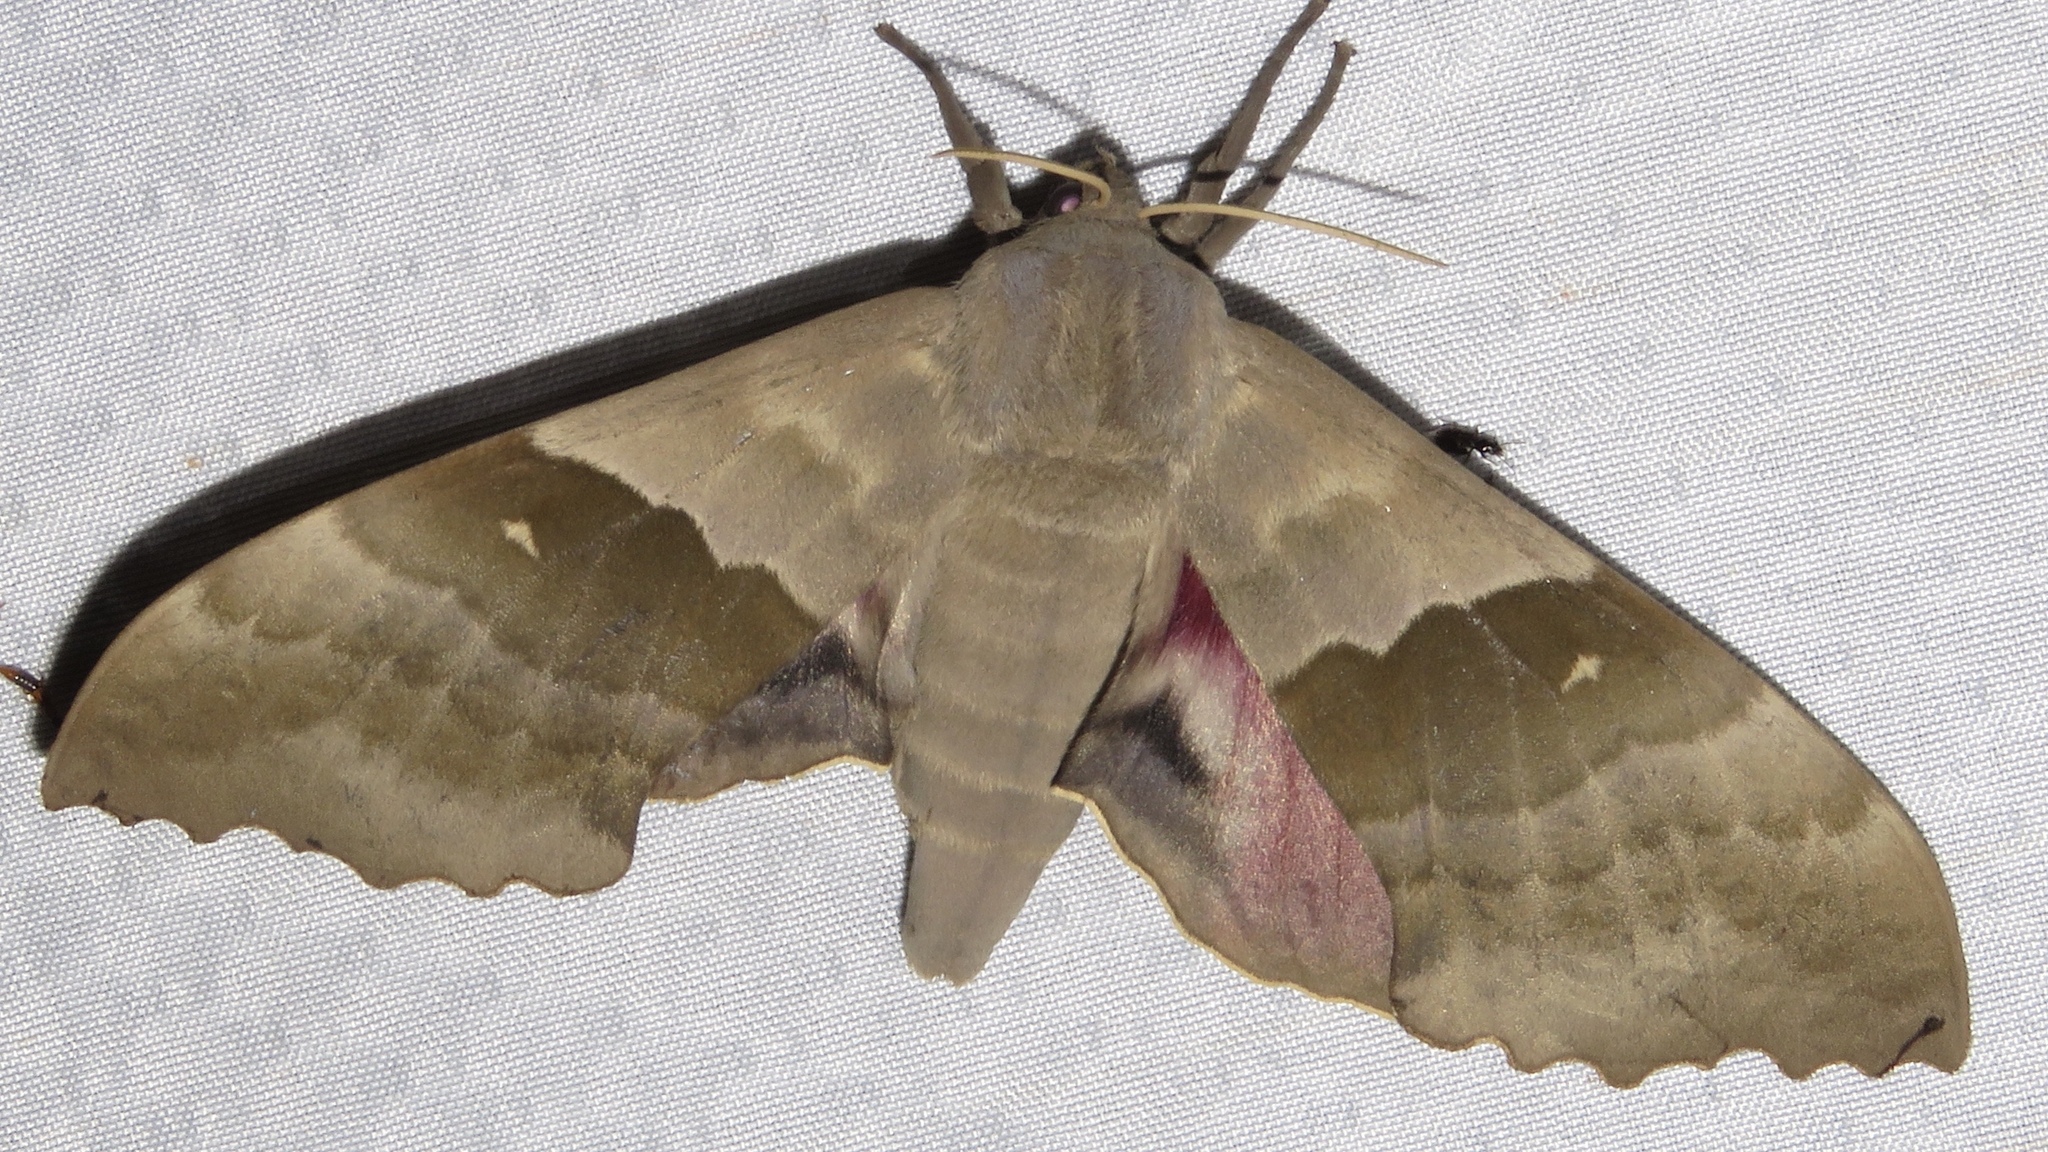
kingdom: Animalia
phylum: Arthropoda
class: Insecta
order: Lepidoptera
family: Sphingidae
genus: Pachysphinx
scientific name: Pachysphinx modesta
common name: Big poplar sphinx
